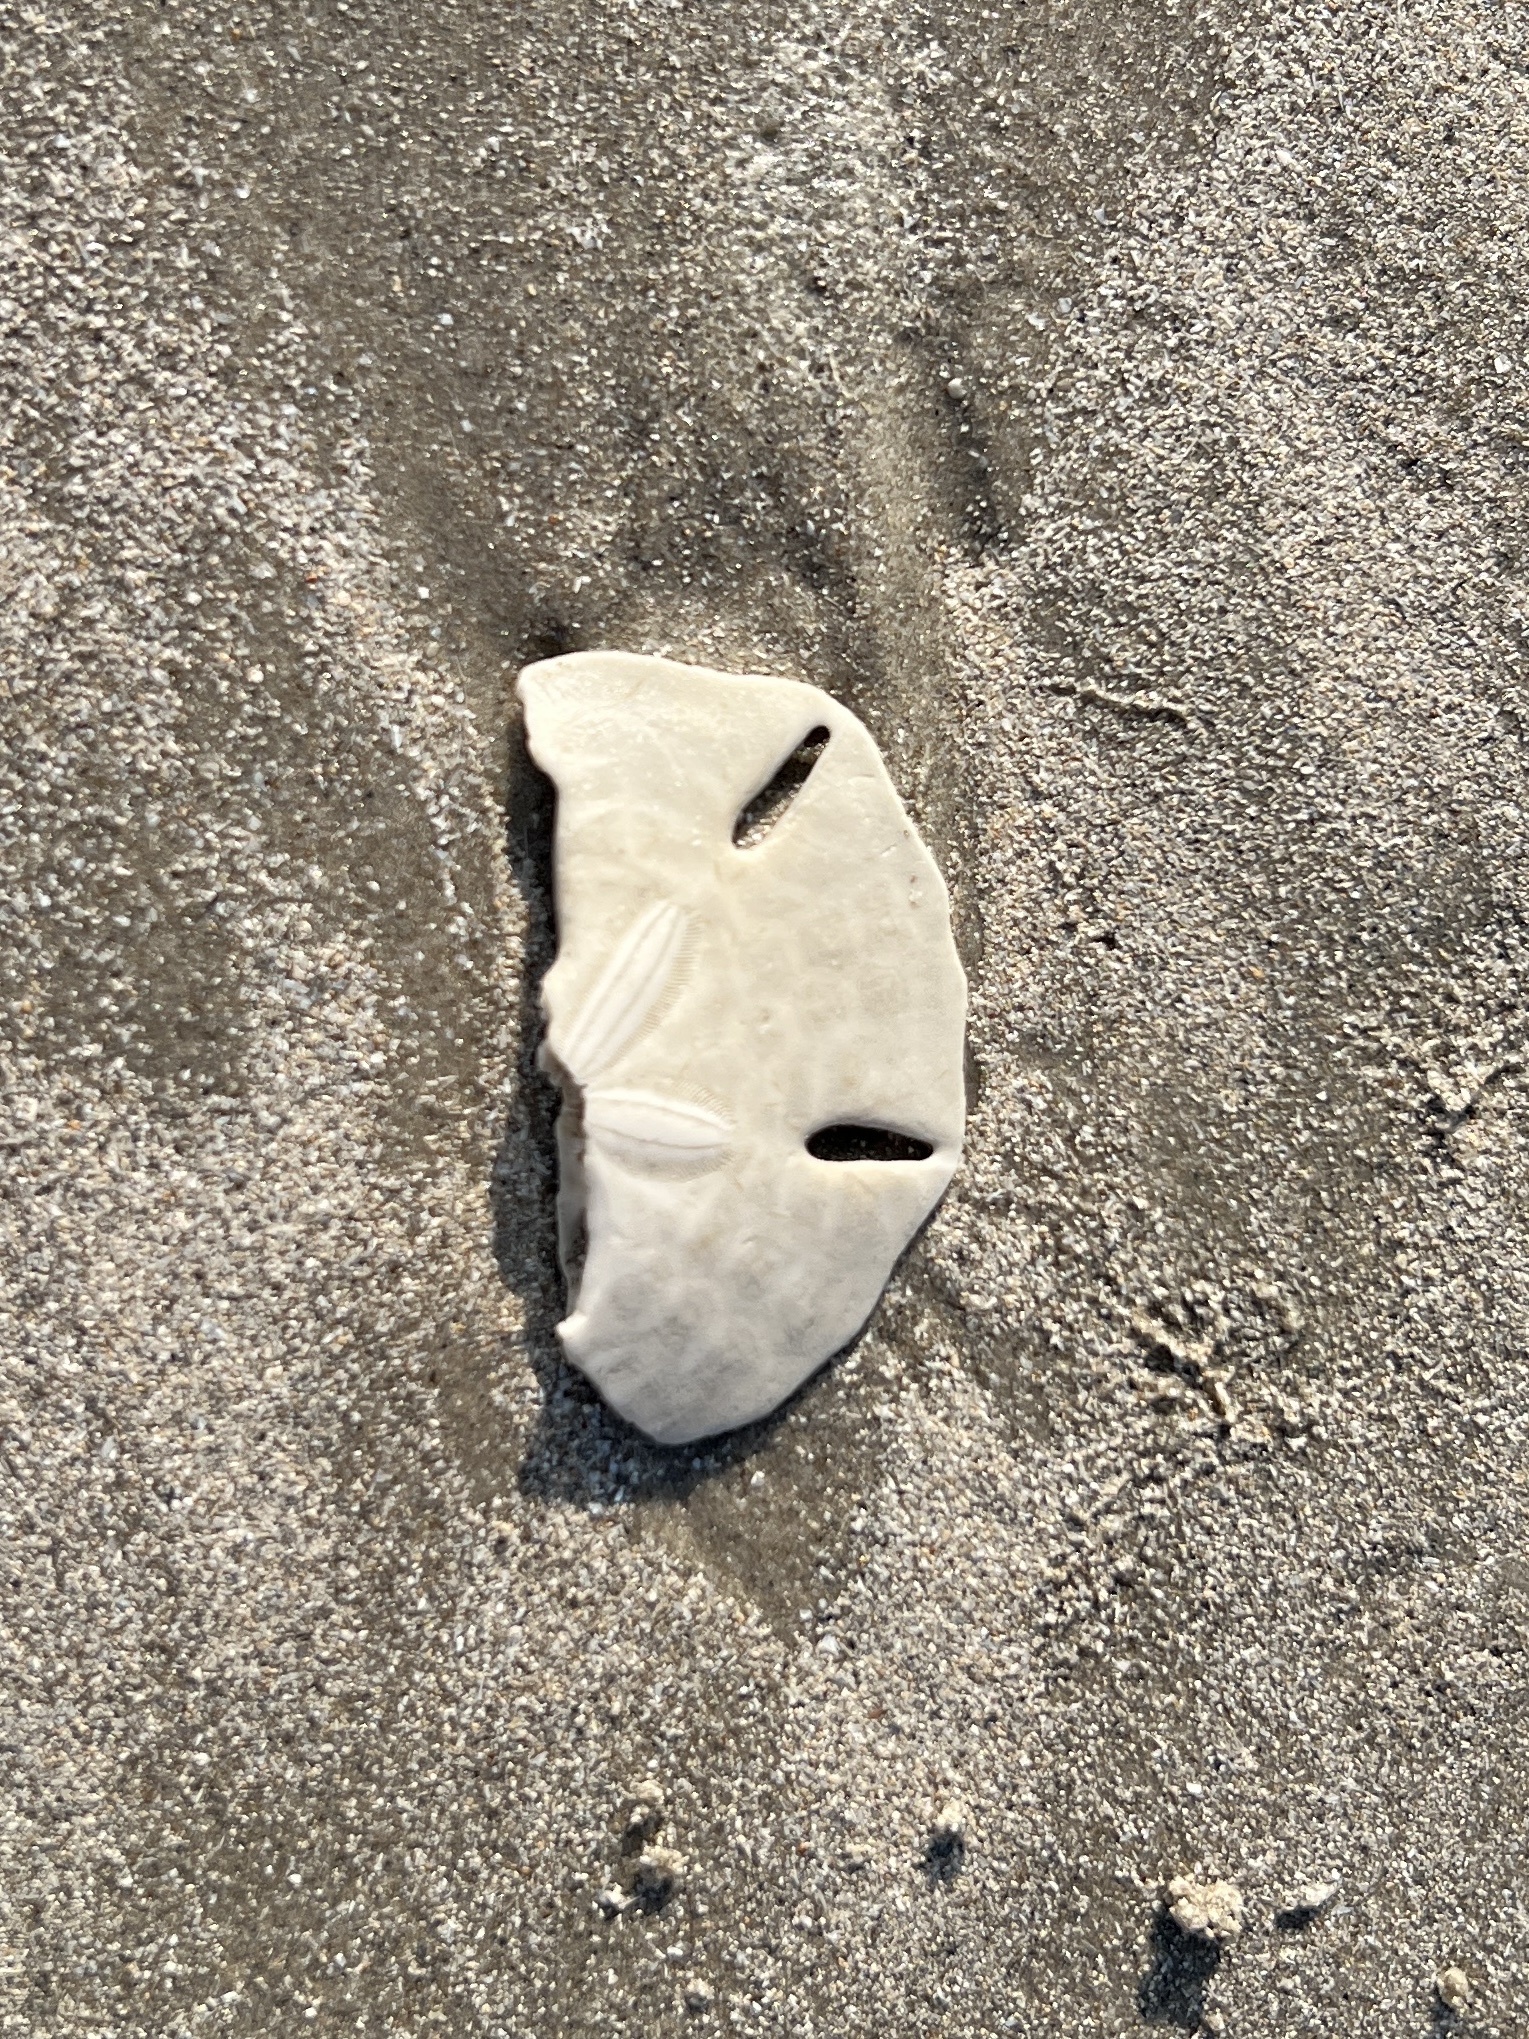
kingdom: Animalia
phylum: Echinodermata
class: Echinoidea
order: Echinolampadacea
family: Mellitidae
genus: Mellita
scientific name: Mellita quinquiesperforata
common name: Sand dollar
